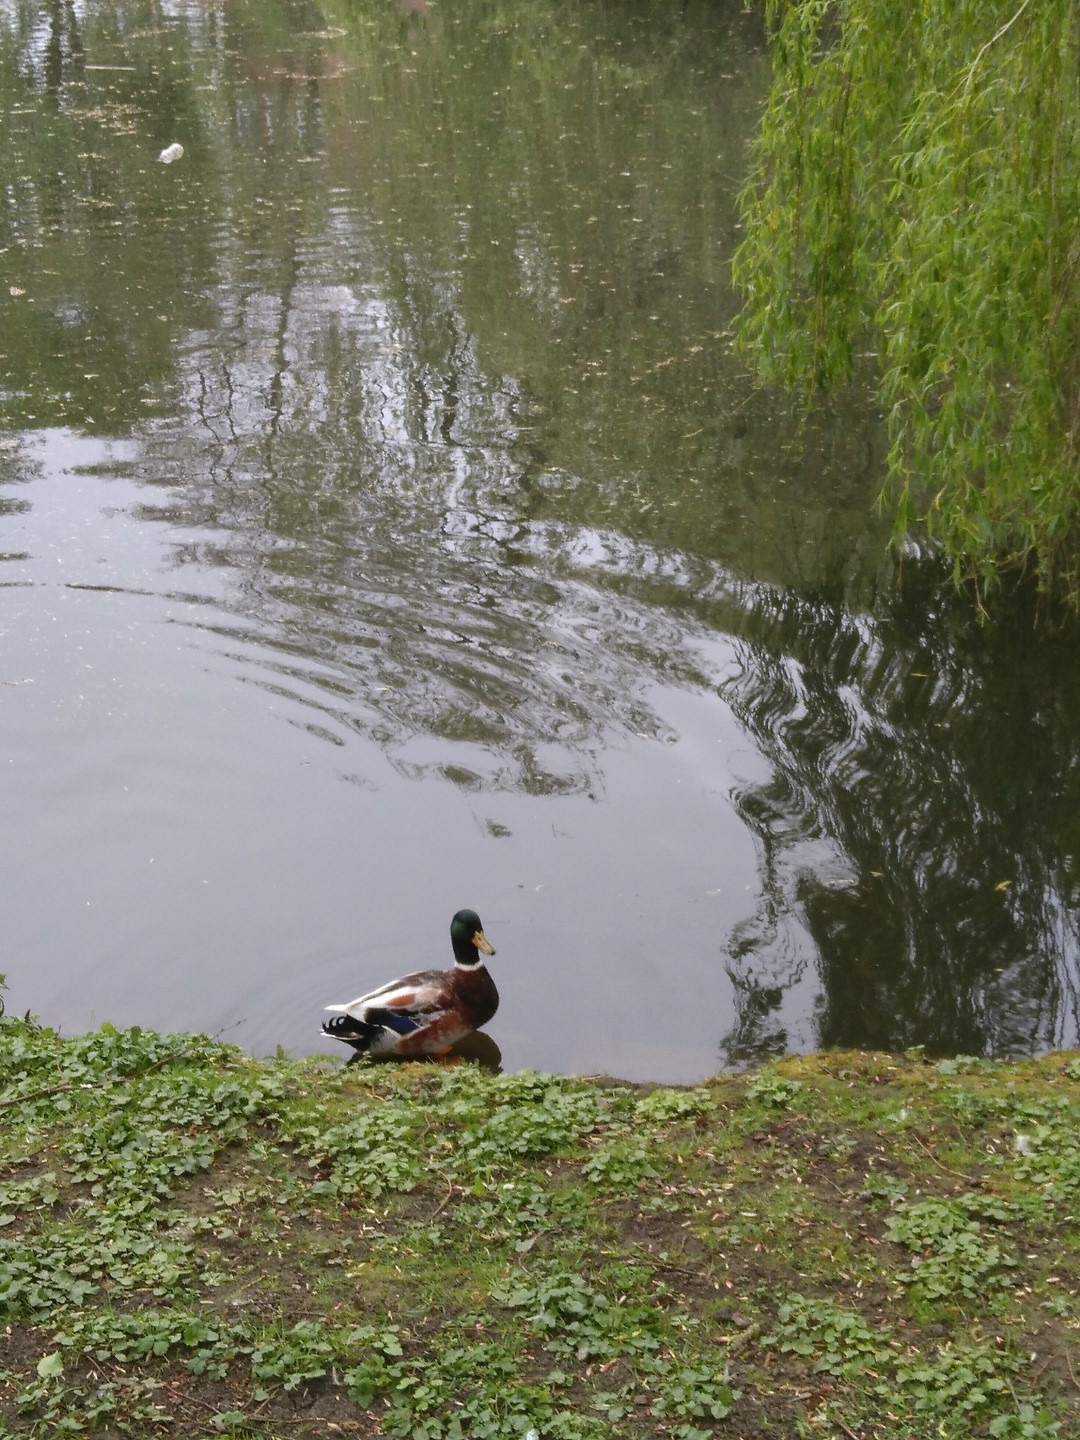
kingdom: Animalia
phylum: Chordata
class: Aves
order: Anseriformes
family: Anatidae
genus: Anas
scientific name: Anas platyrhynchos
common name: Mallard
